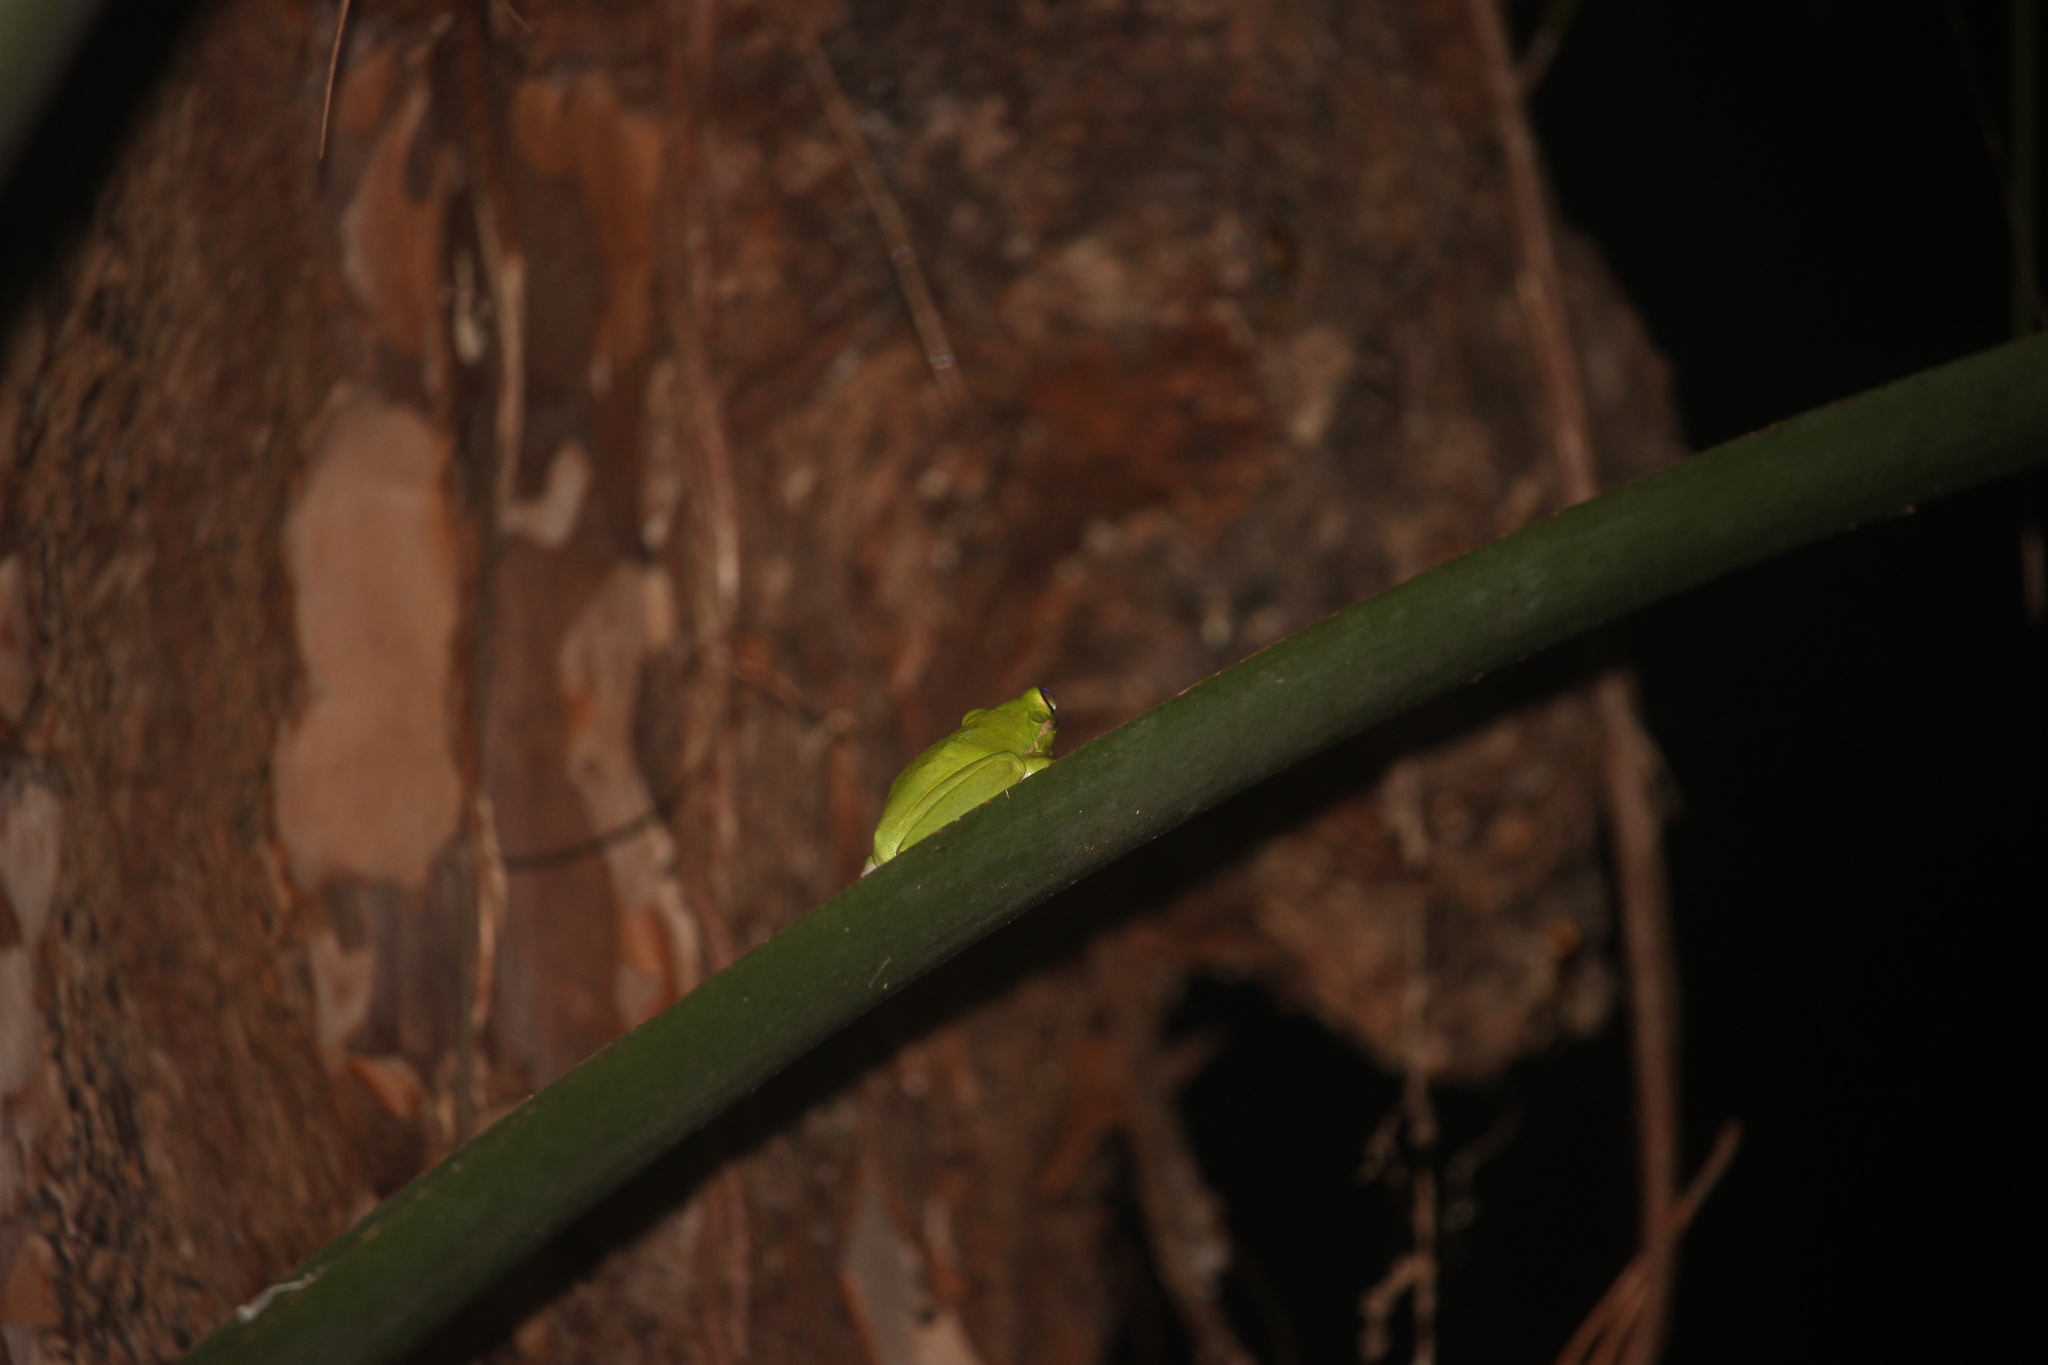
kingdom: Animalia
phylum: Chordata
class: Amphibia
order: Anura
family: Hylidae
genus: Dryophytes
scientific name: Dryophytes cinereus
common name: Green treefrog
